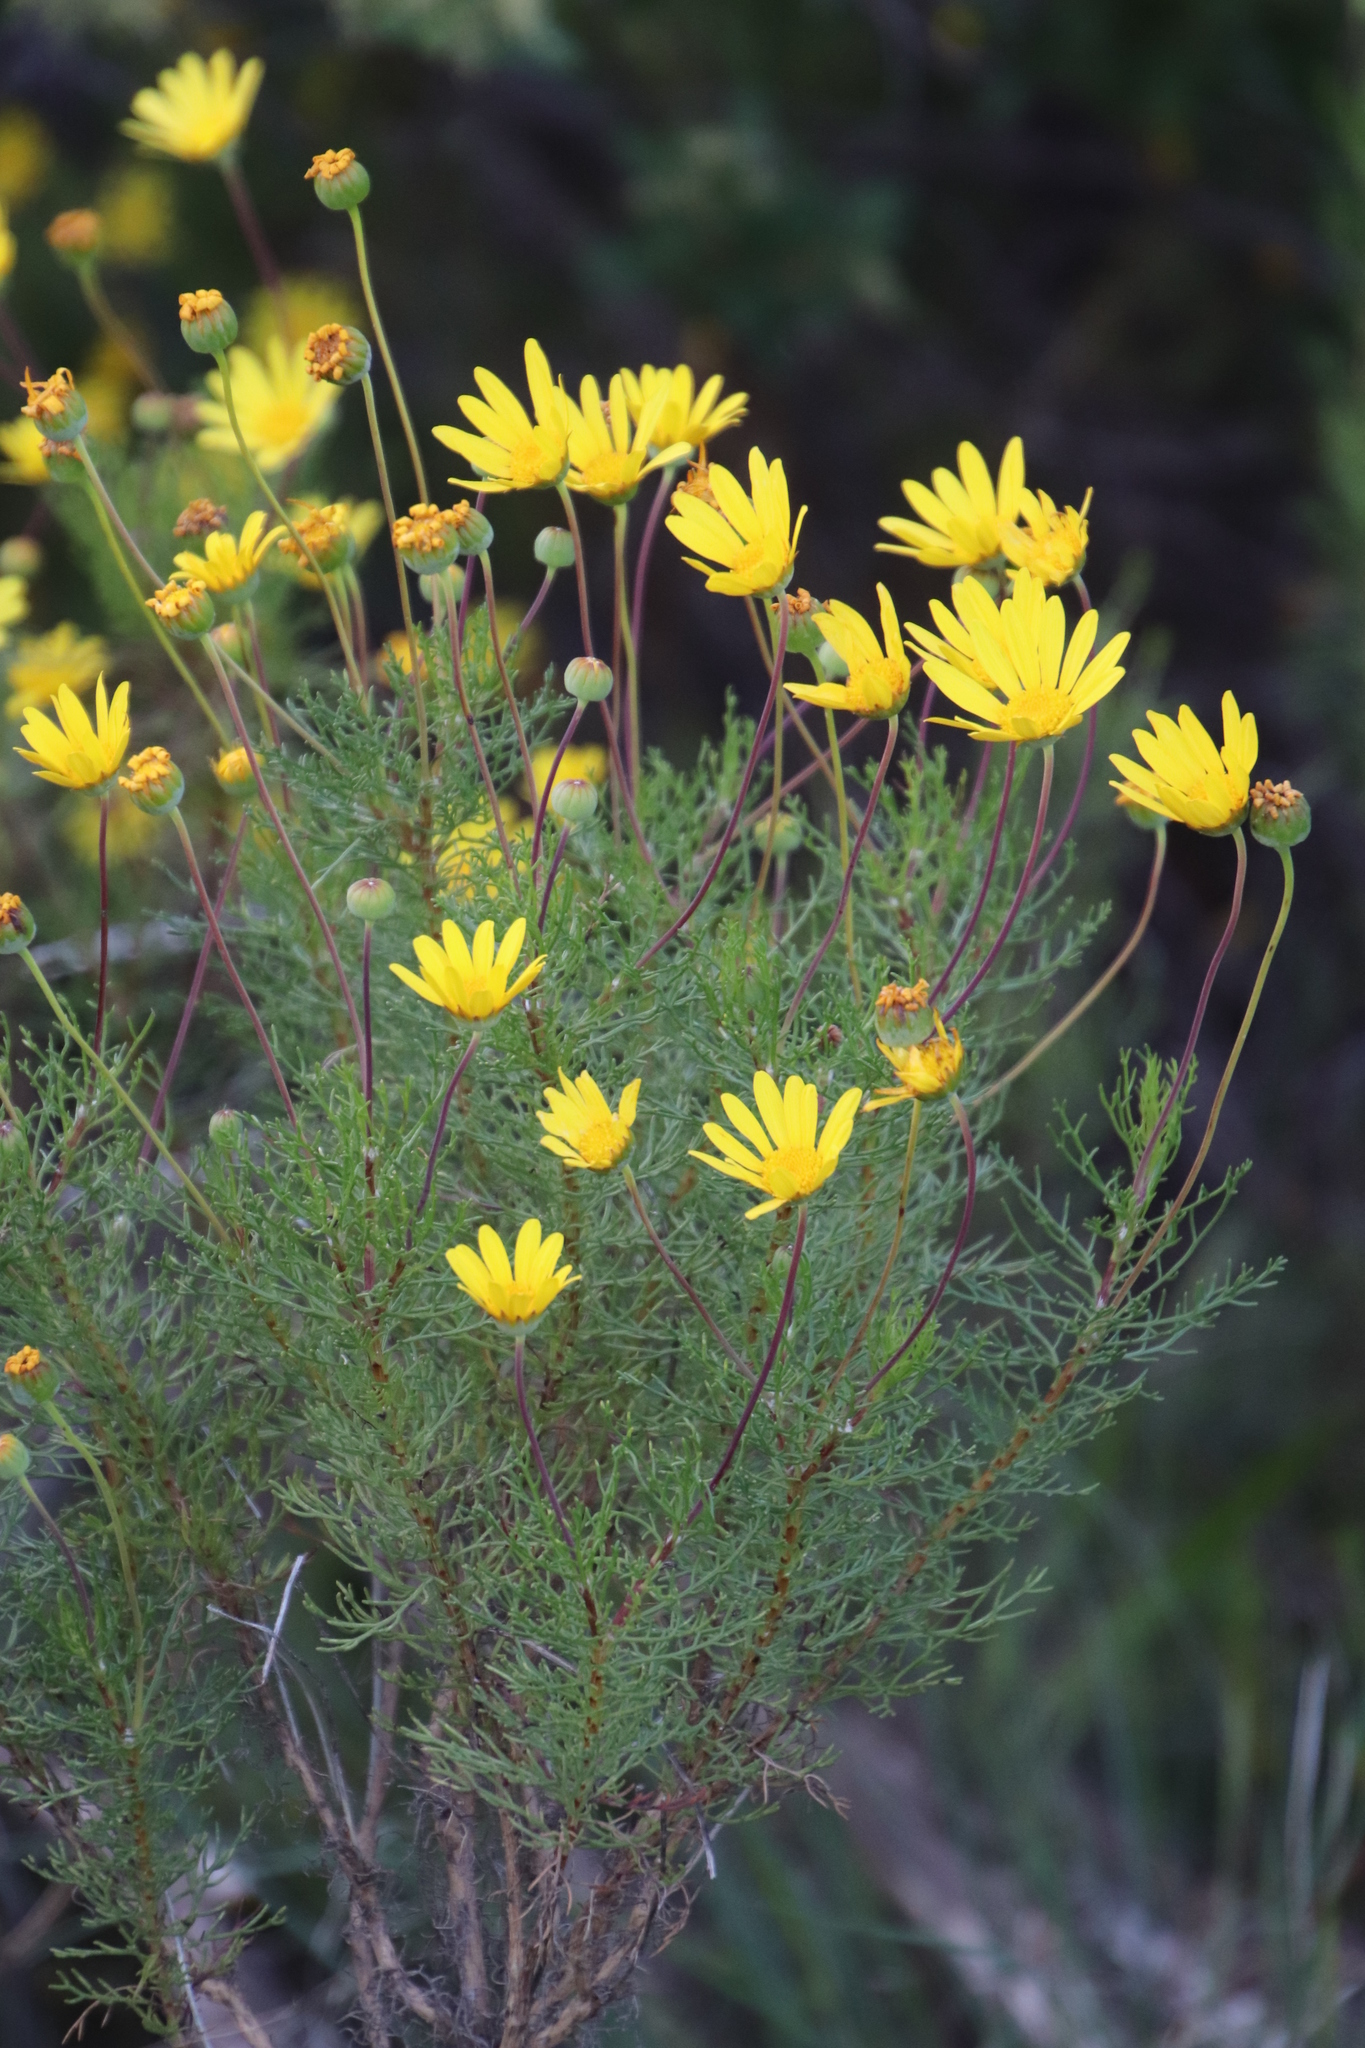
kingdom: Plantae
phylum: Tracheophyta
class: Magnoliopsida
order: Asterales
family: Asteraceae
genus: Euryops
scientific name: Euryops abrotanifolius
